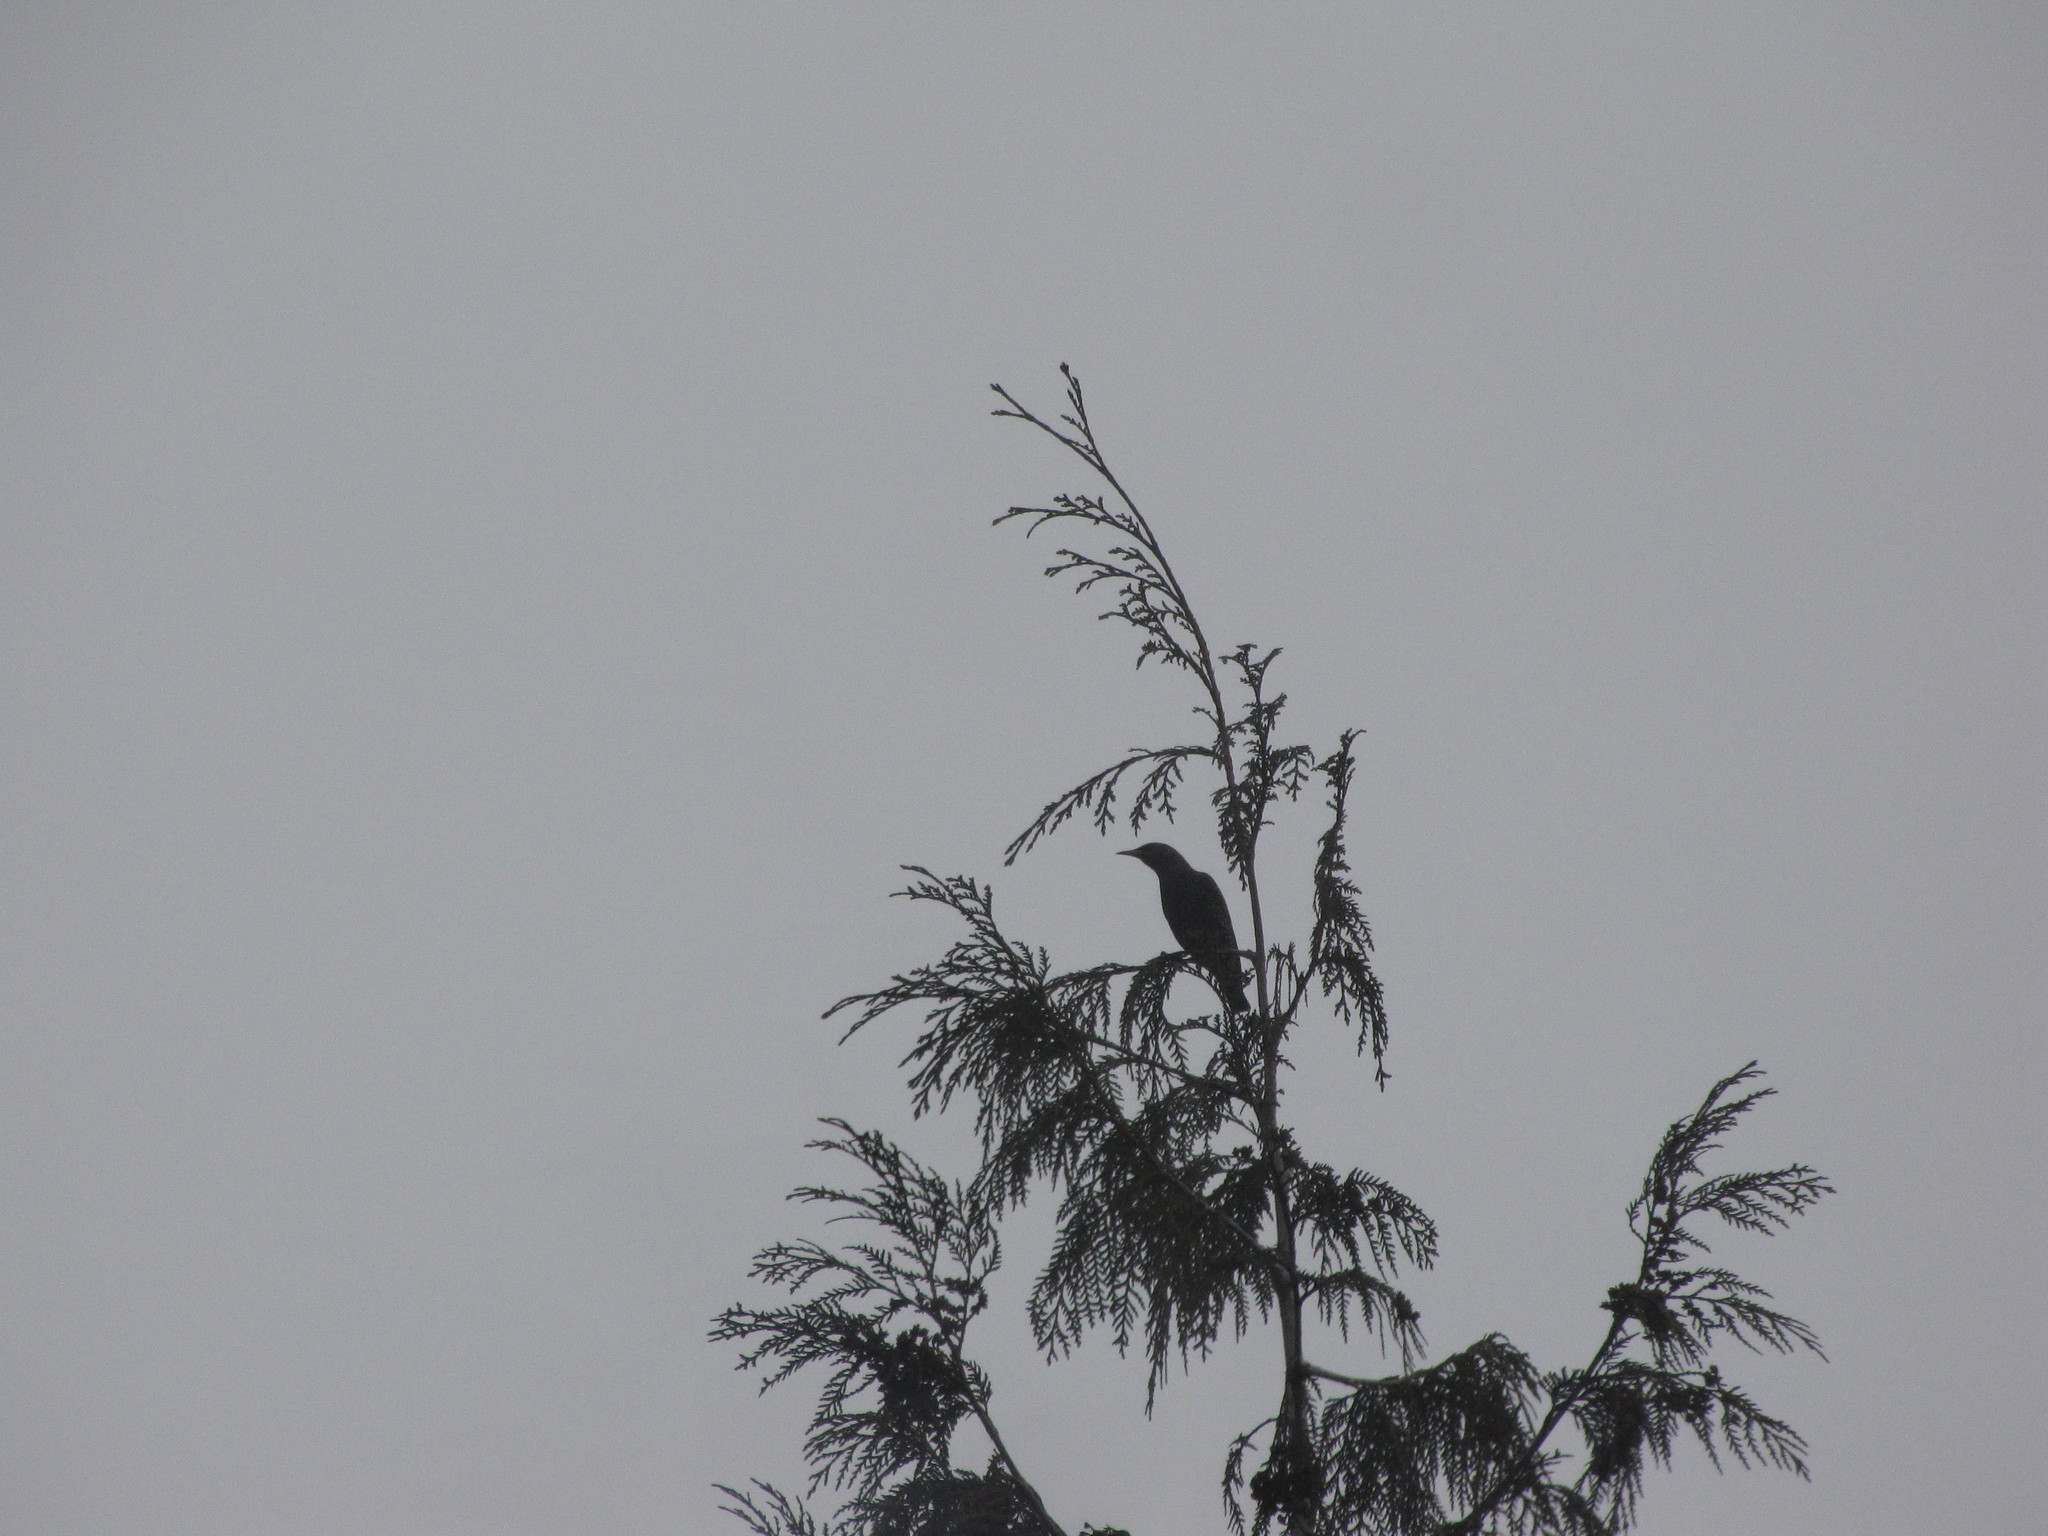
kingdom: Animalia
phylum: Chordata
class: Aves
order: Passeriformes
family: Sturnidae
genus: Sturnus
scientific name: Sturnus vulgaris
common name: Common starling
